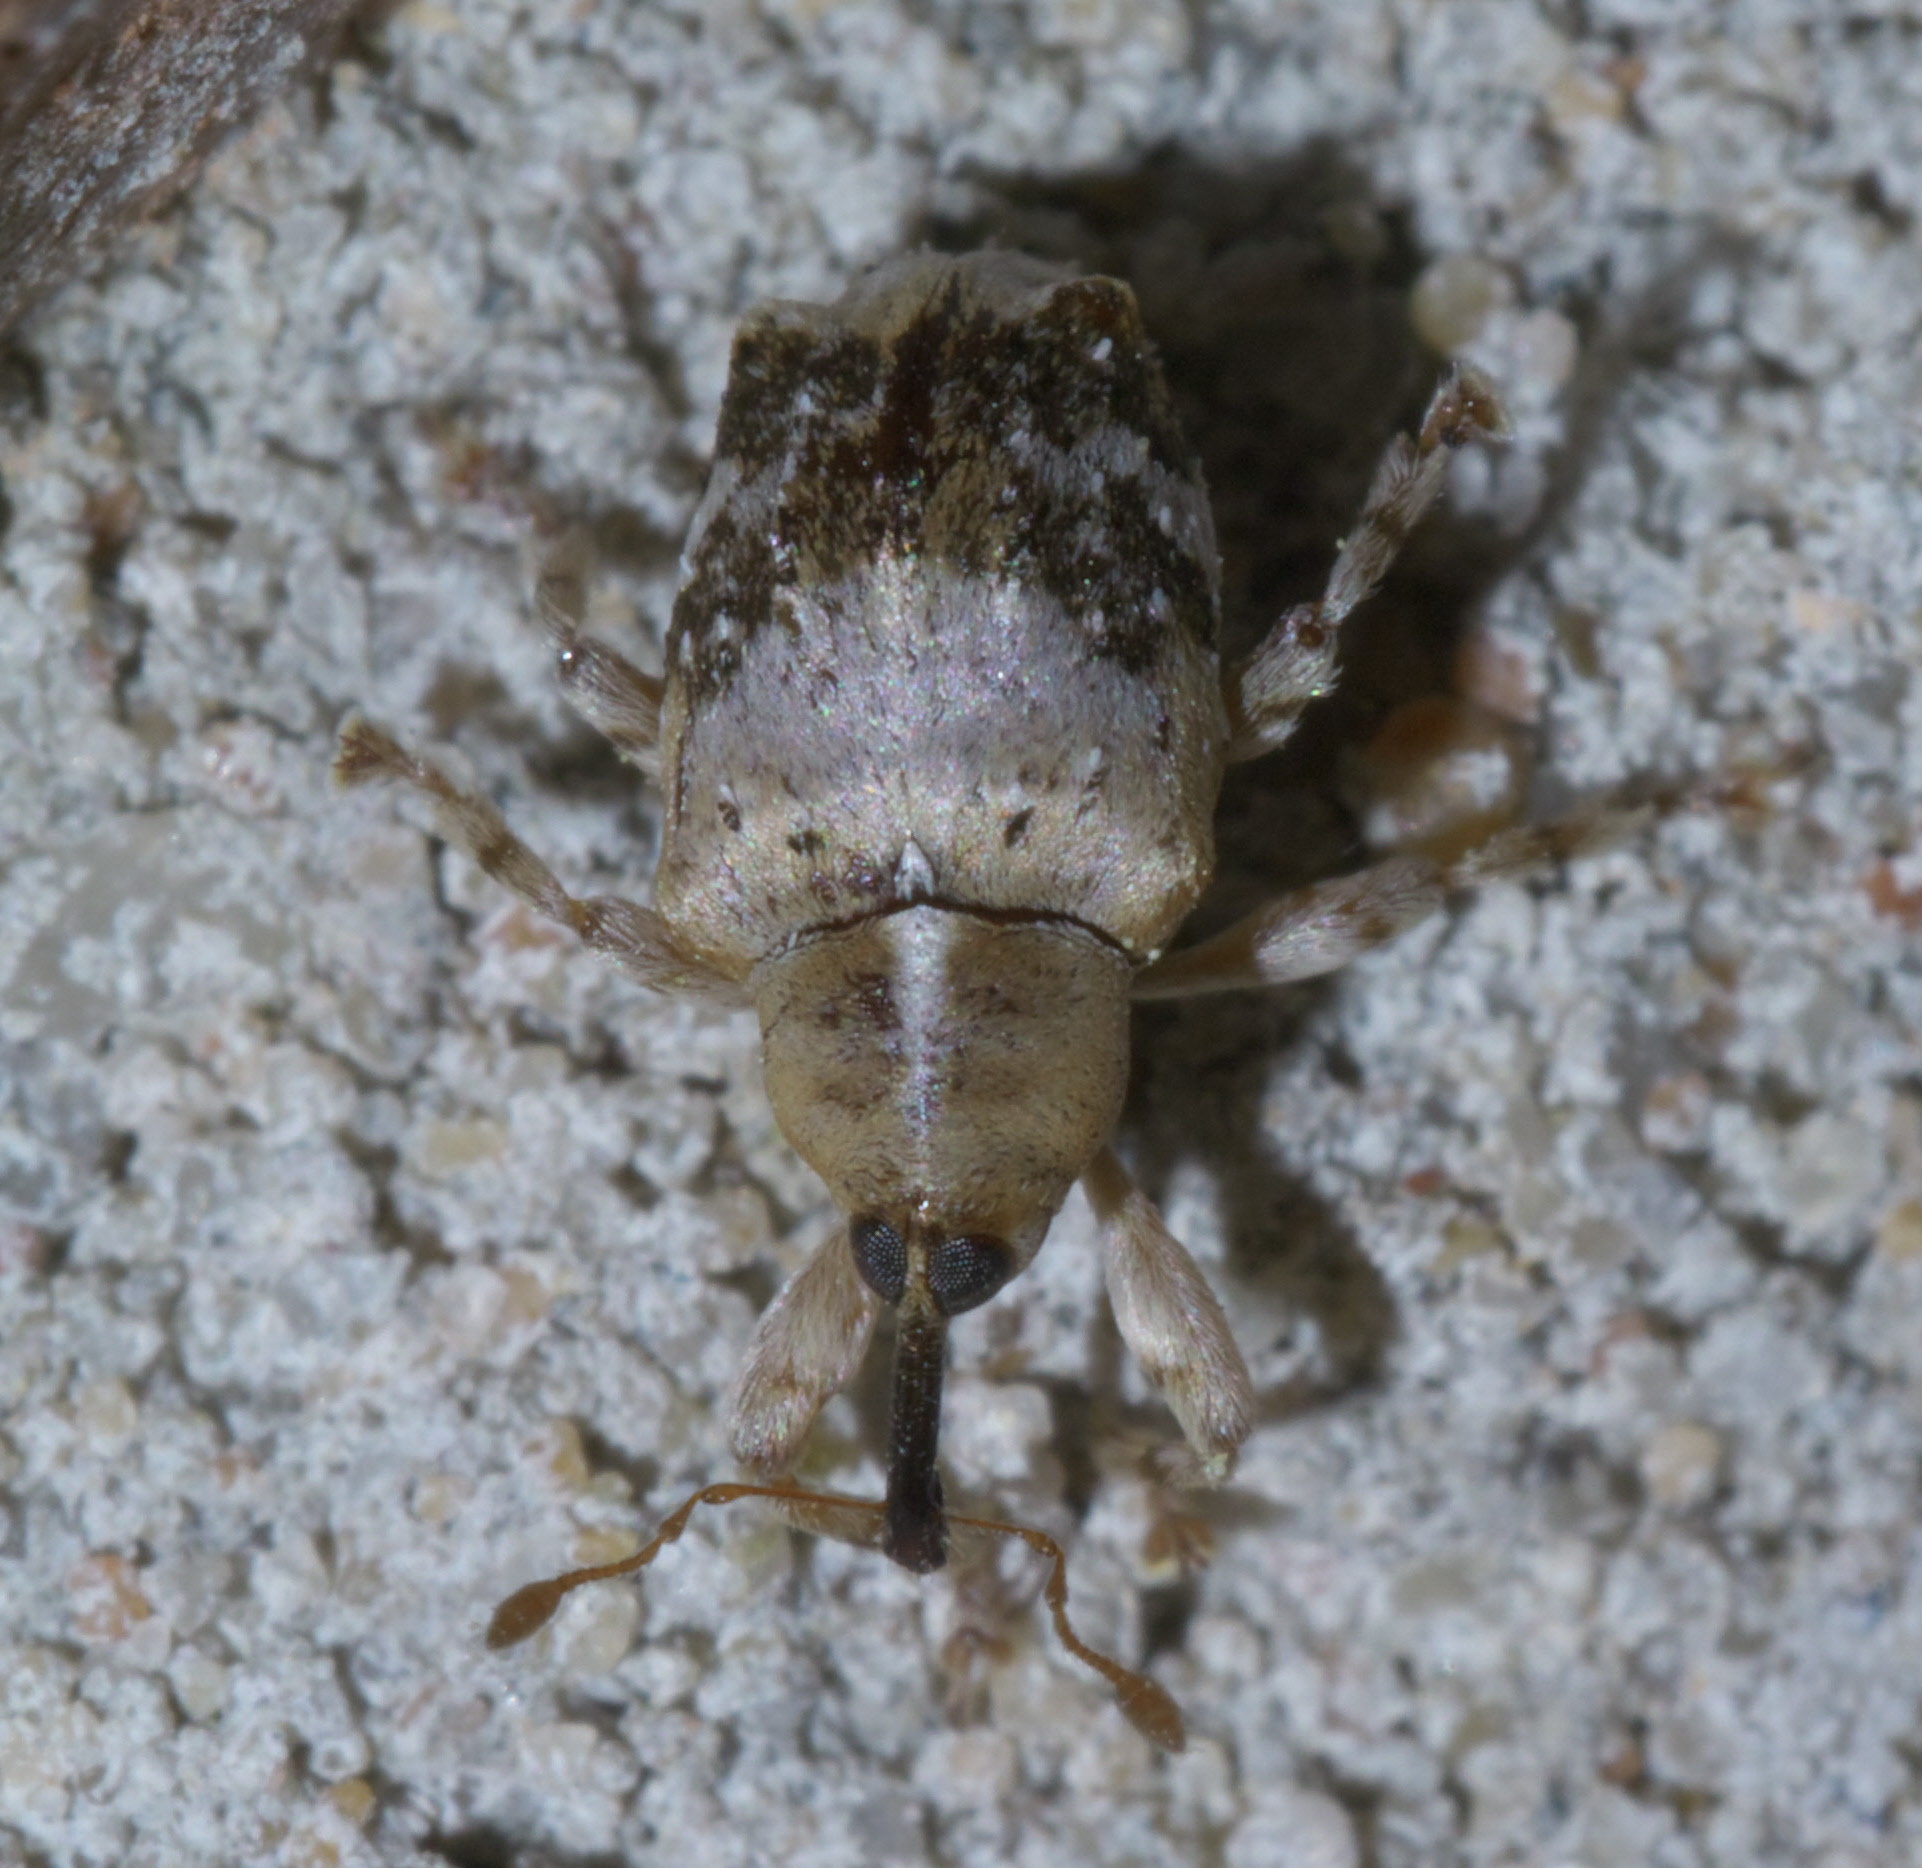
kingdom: Animalia
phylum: Arthropoda
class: Insecta
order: Coleoptera
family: Curculionidae
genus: Lignyodes
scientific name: Lignyodes pallidus
